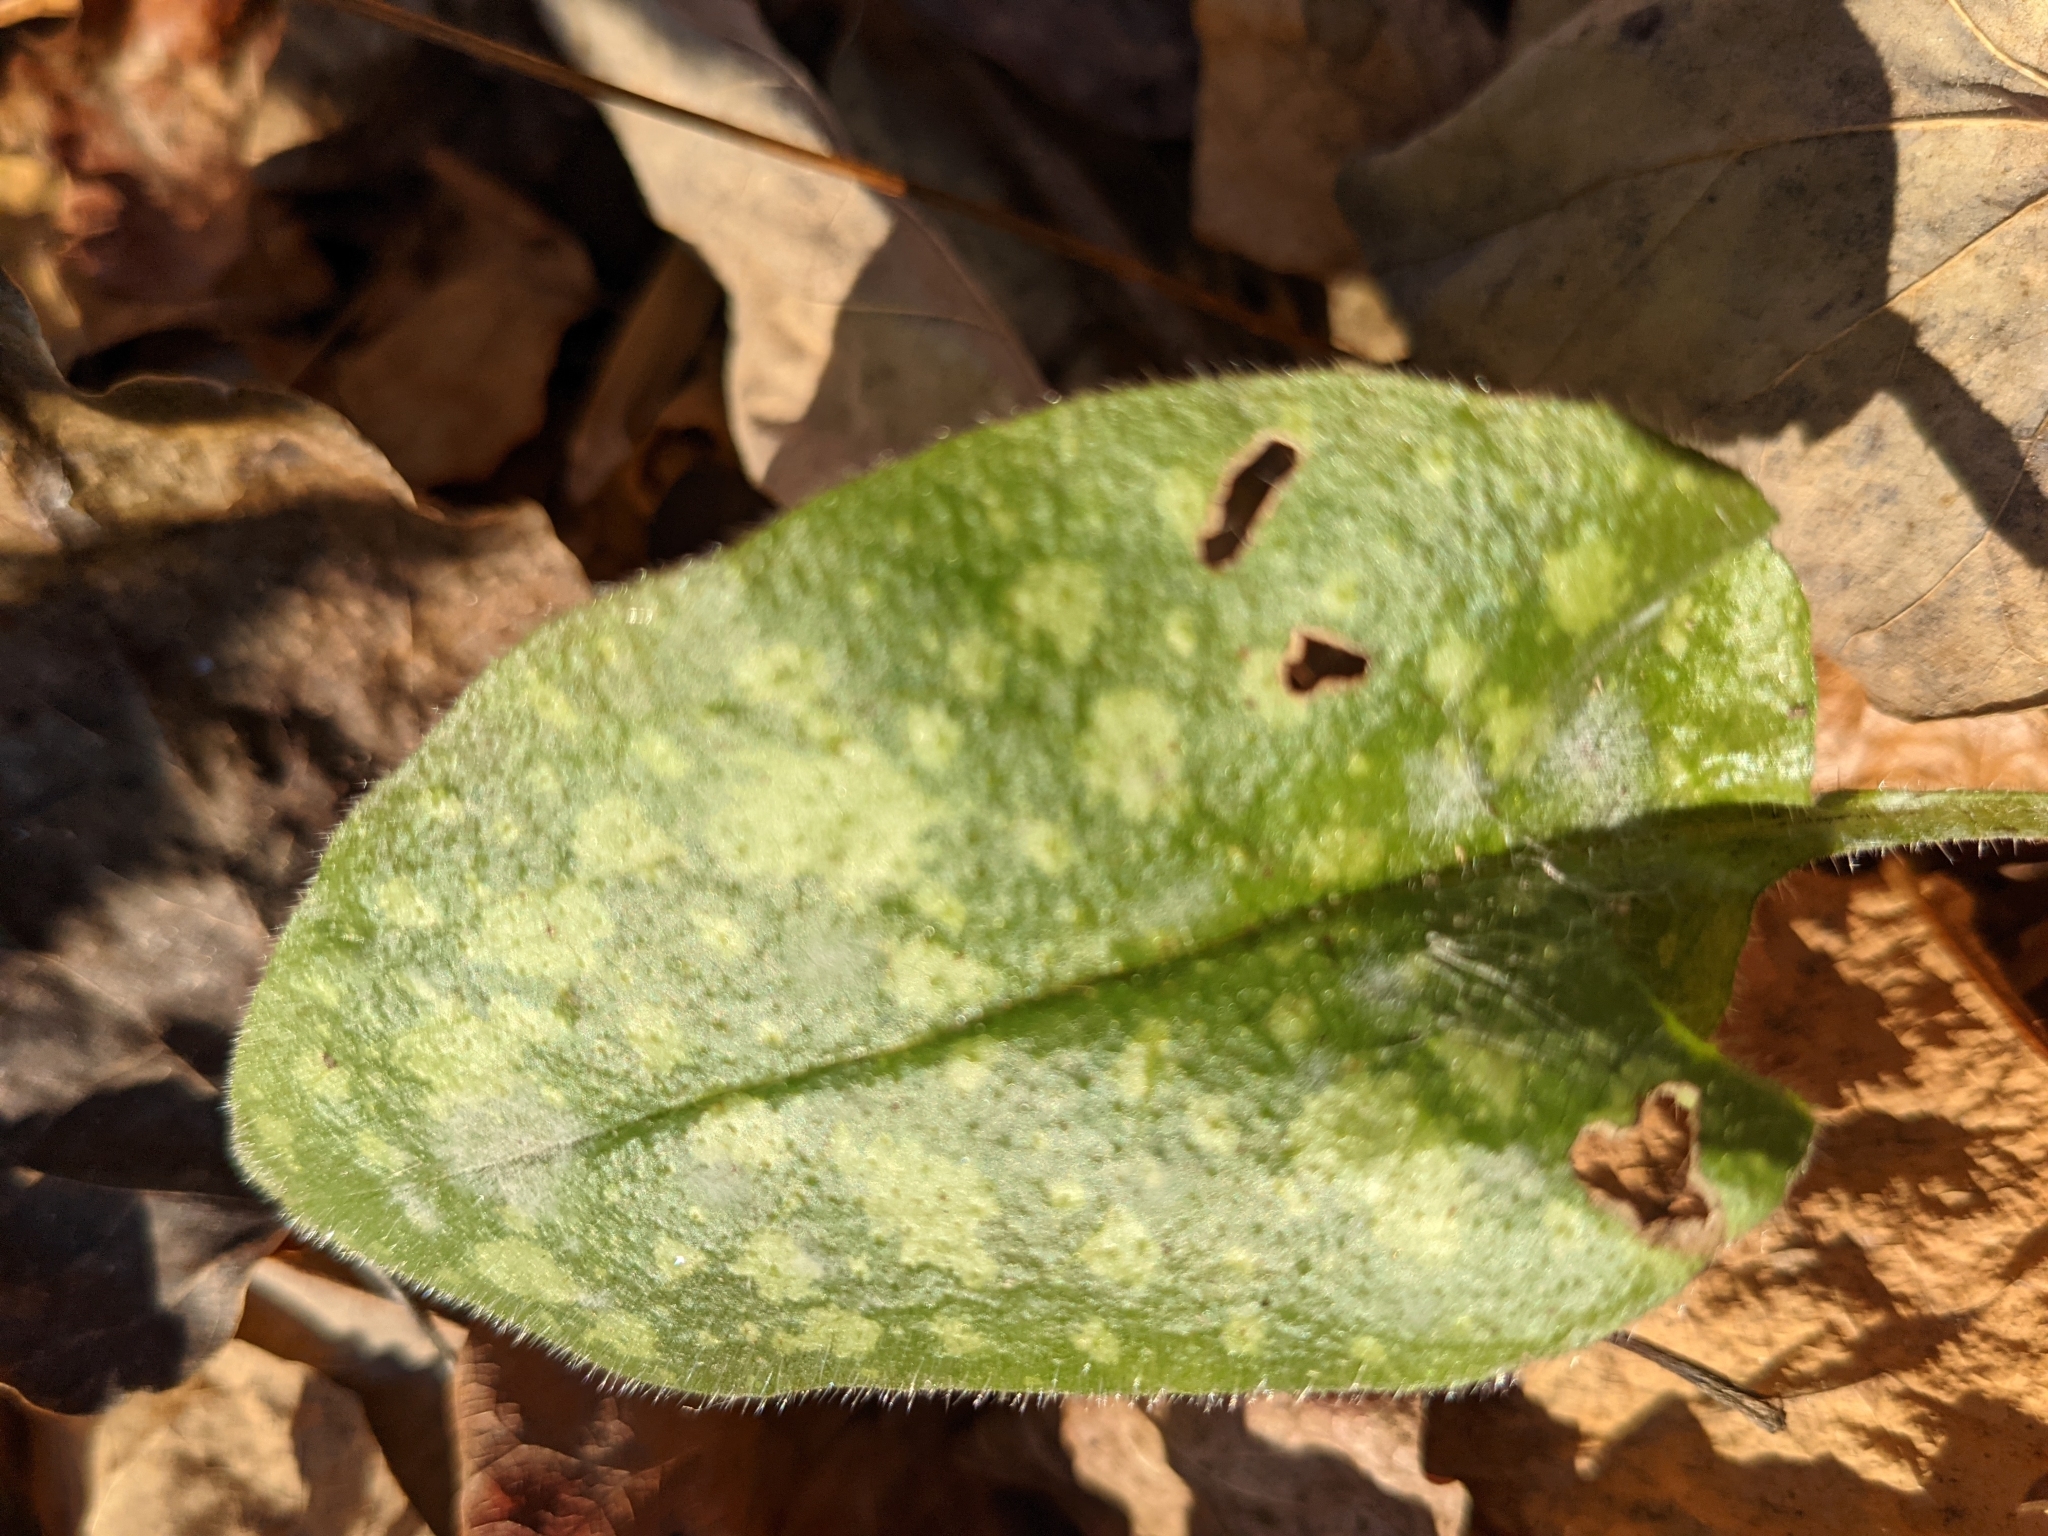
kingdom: Plantae
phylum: Tracheophyta
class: Magnoliopsida
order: Boraginales
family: Boraginaceae
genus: Pulmonaria
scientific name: Pulmonaria
